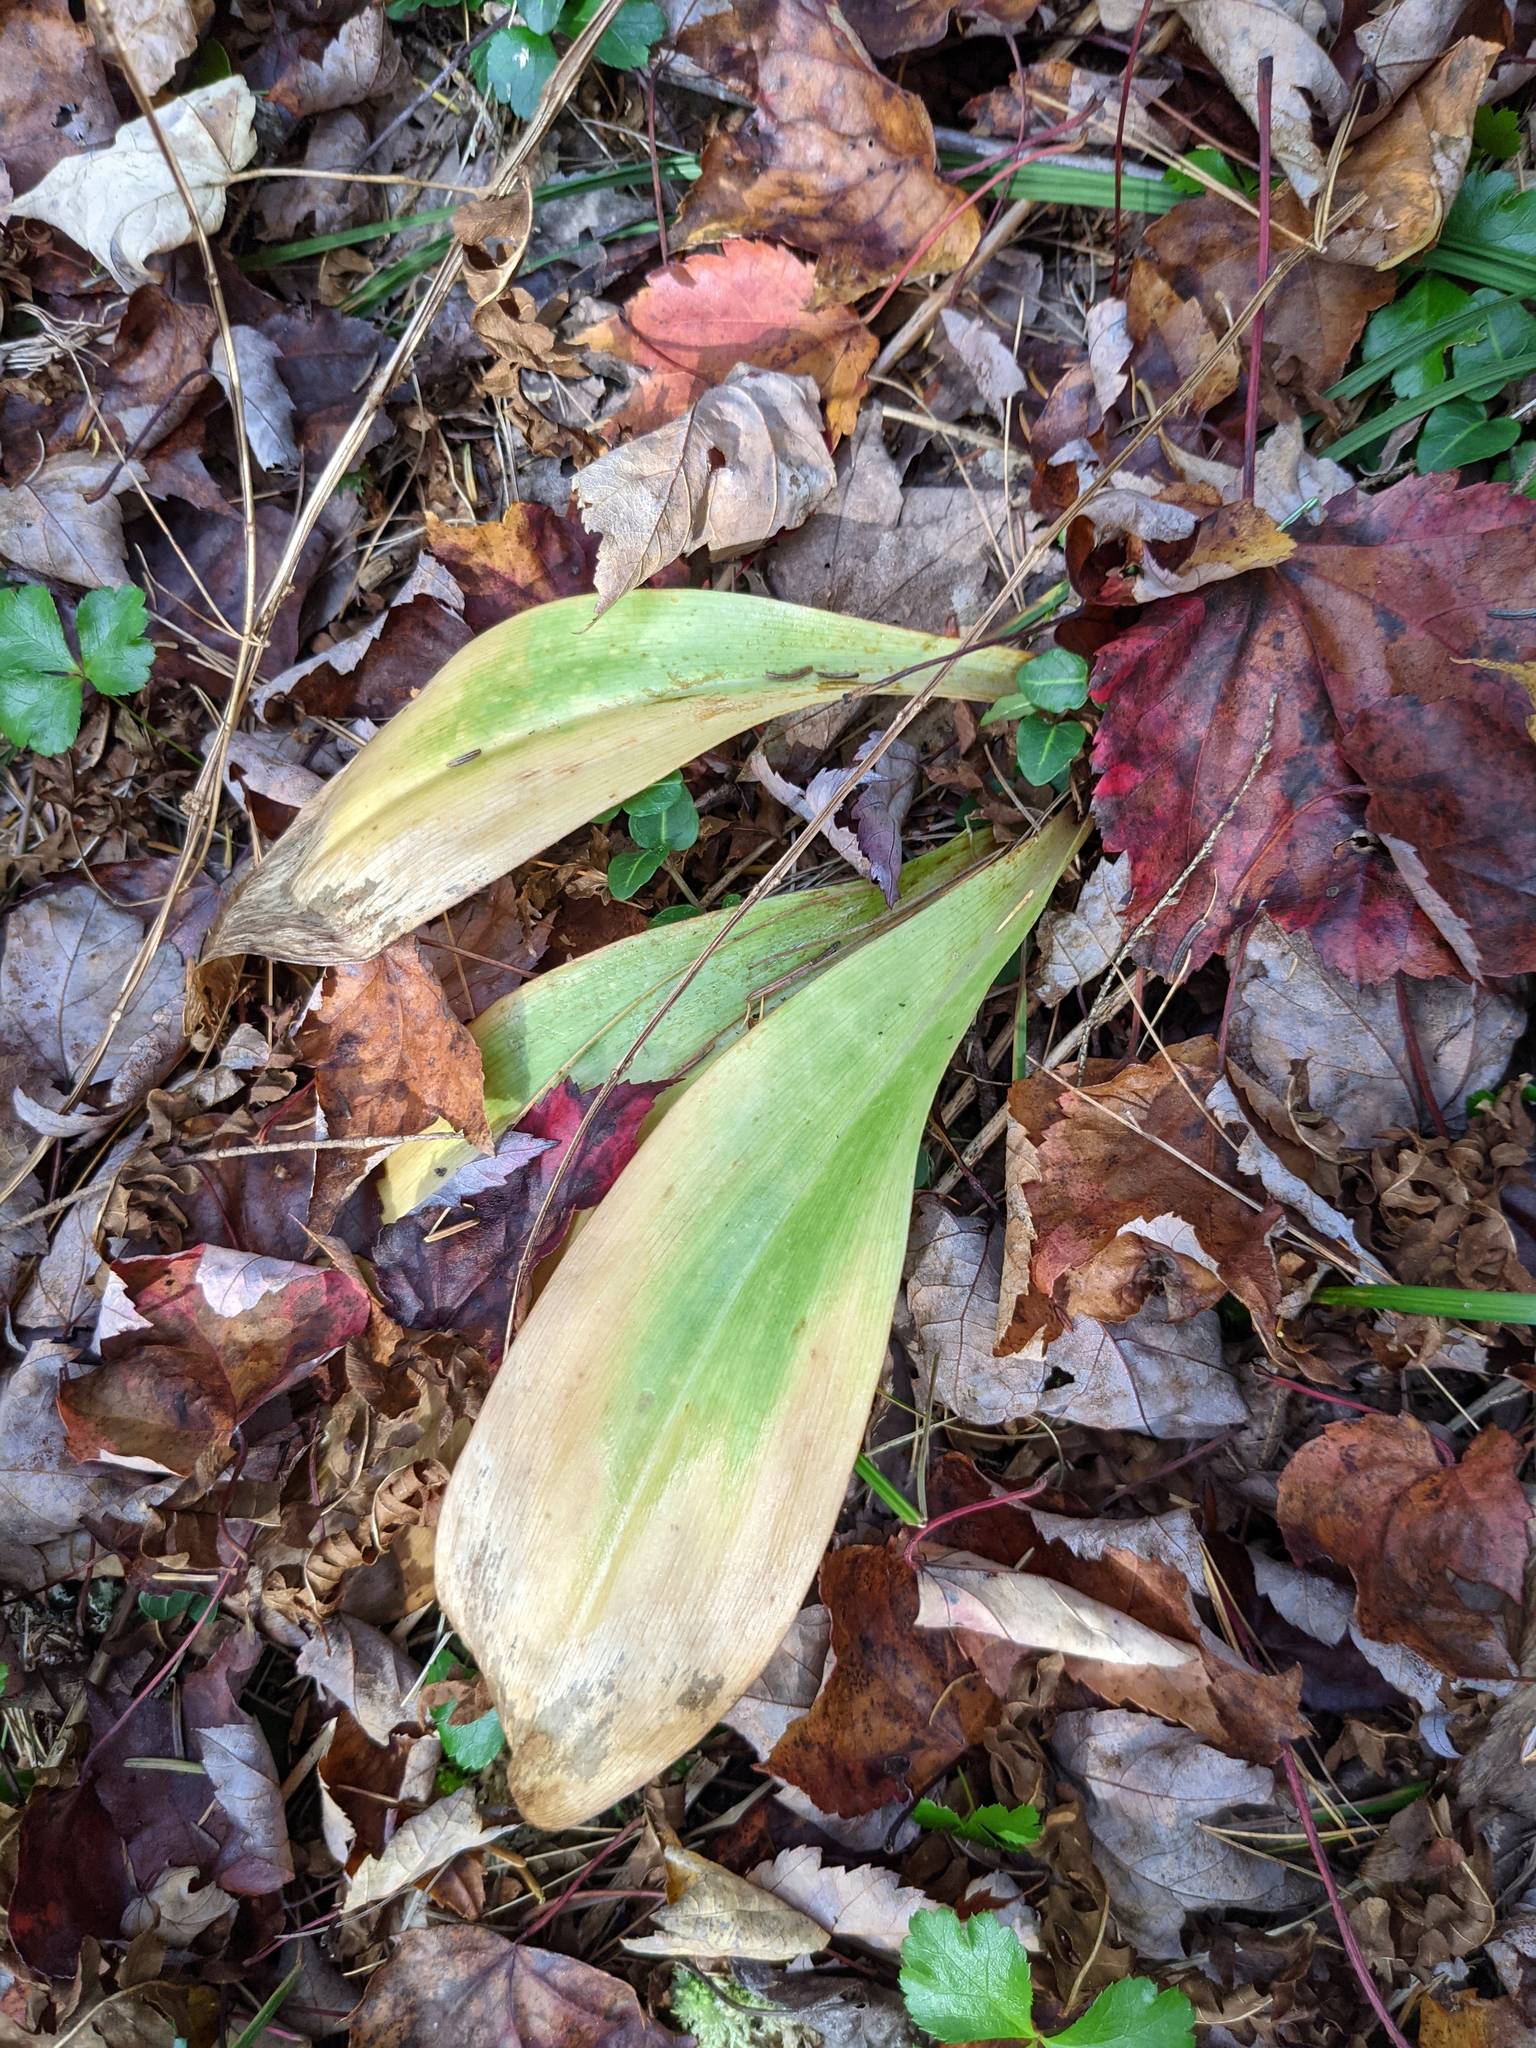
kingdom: Plantae
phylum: Tracheophyta
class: Liliopsida
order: Liliales
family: Liliaceae
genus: Clintonia
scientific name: Clintonia borealis
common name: Yellow clintonia
